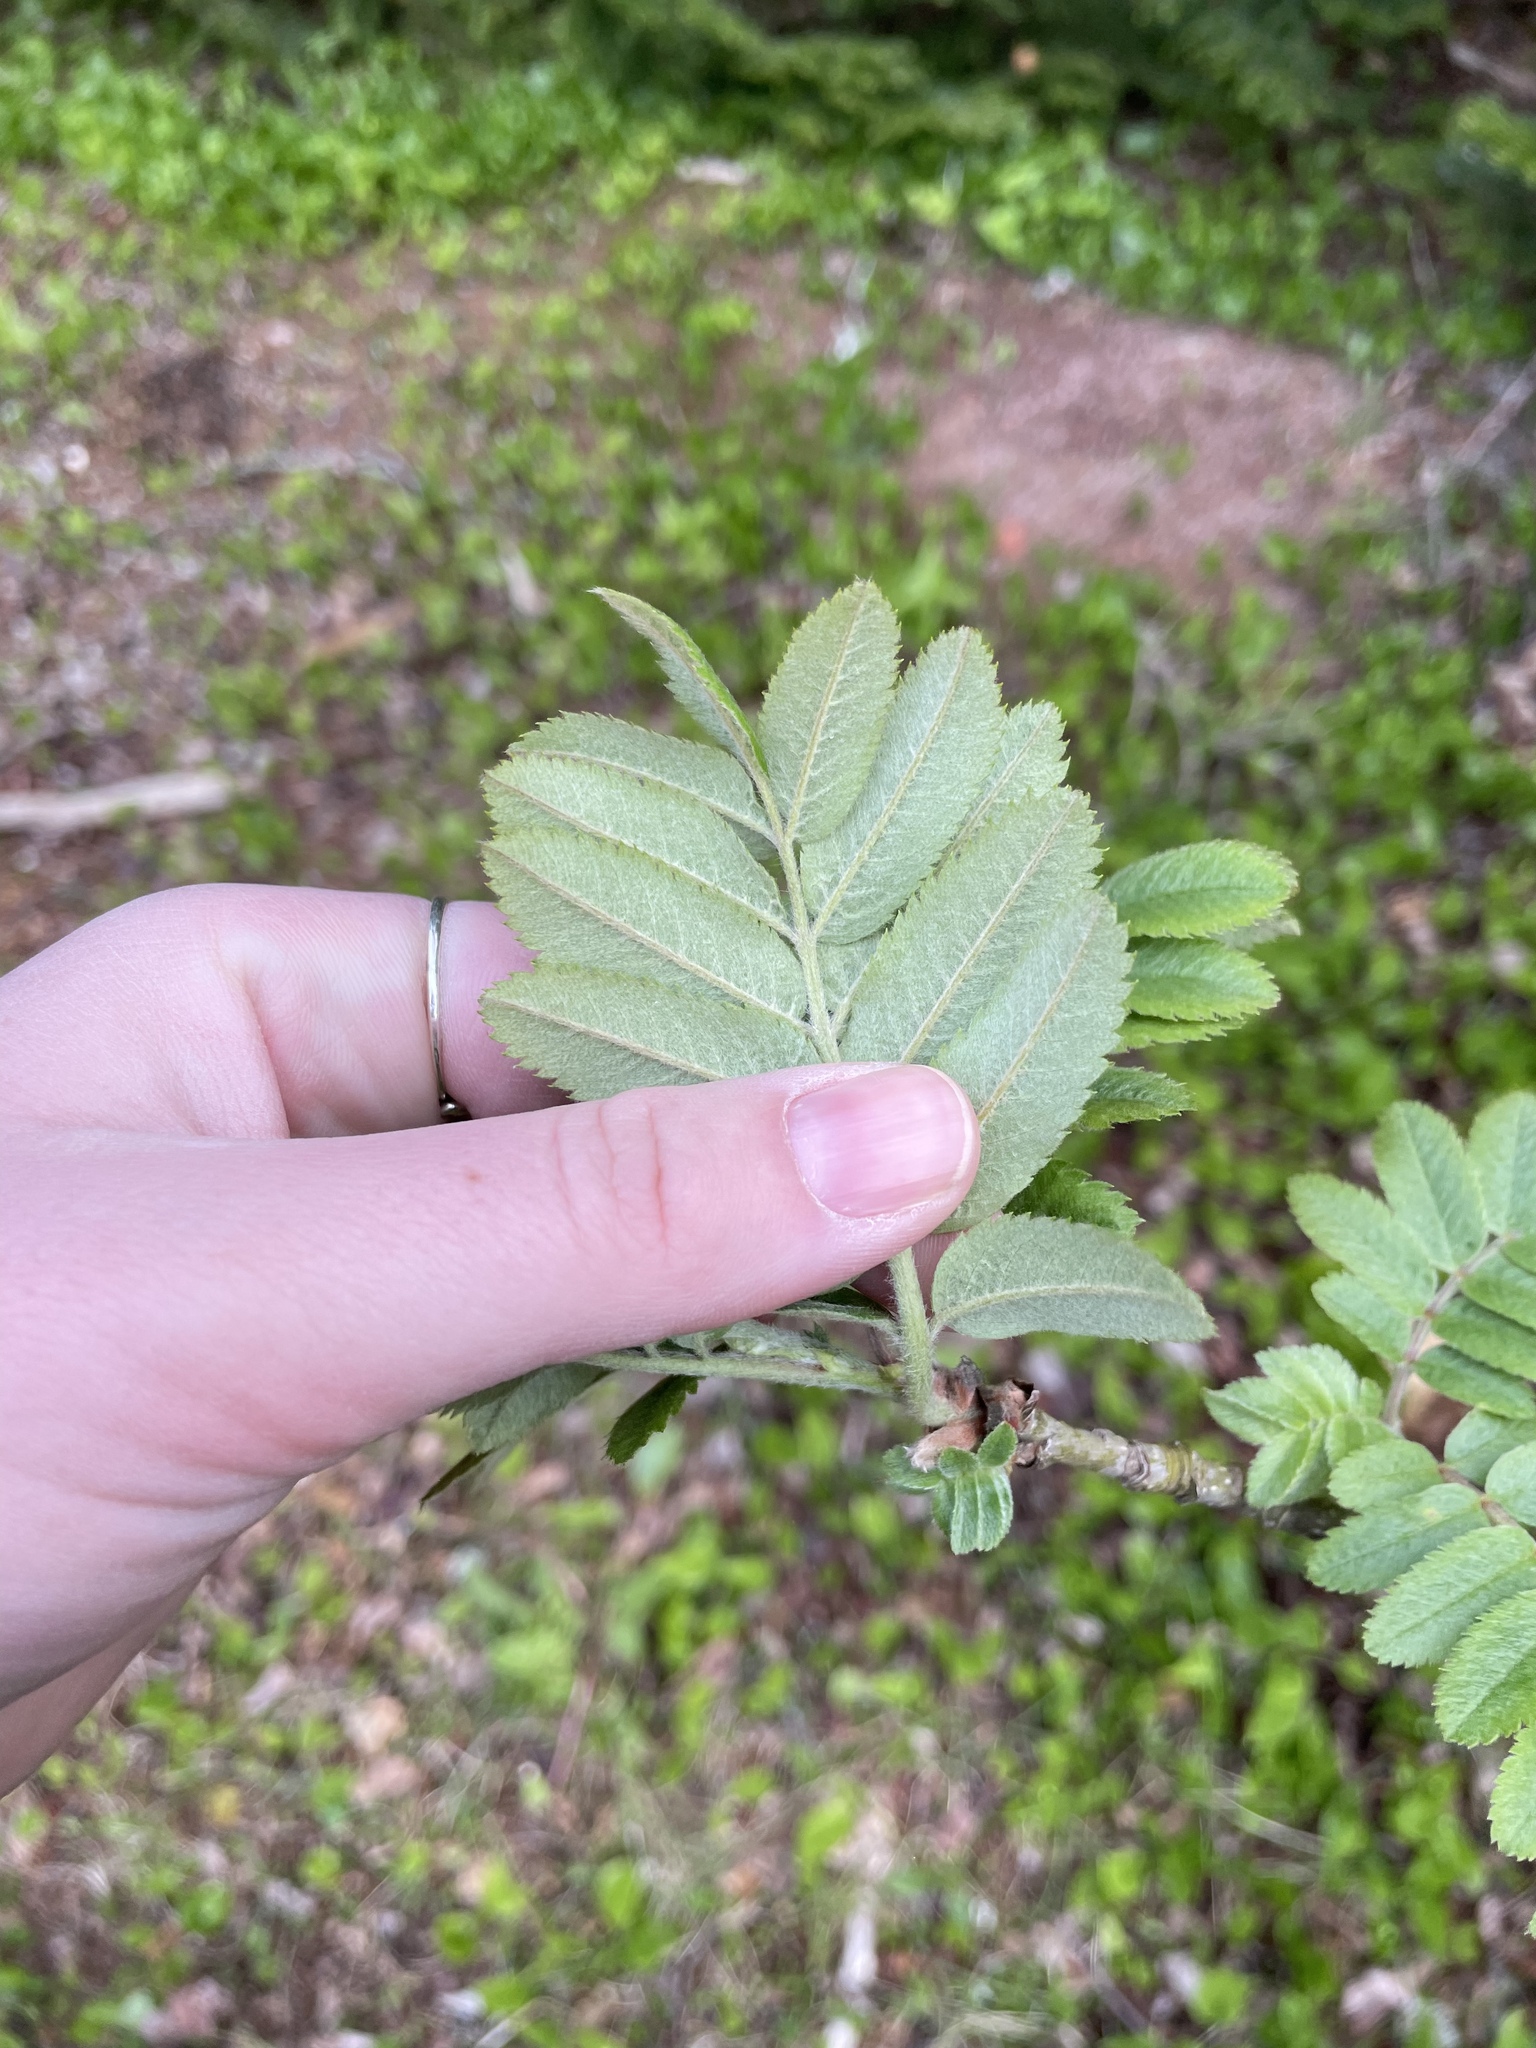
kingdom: Plantae
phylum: Tracheophyta
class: Magnoliopsida
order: Rosales
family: Rosaceae
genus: Sorbus
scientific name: Sorbus aucuparia
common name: Rowan
